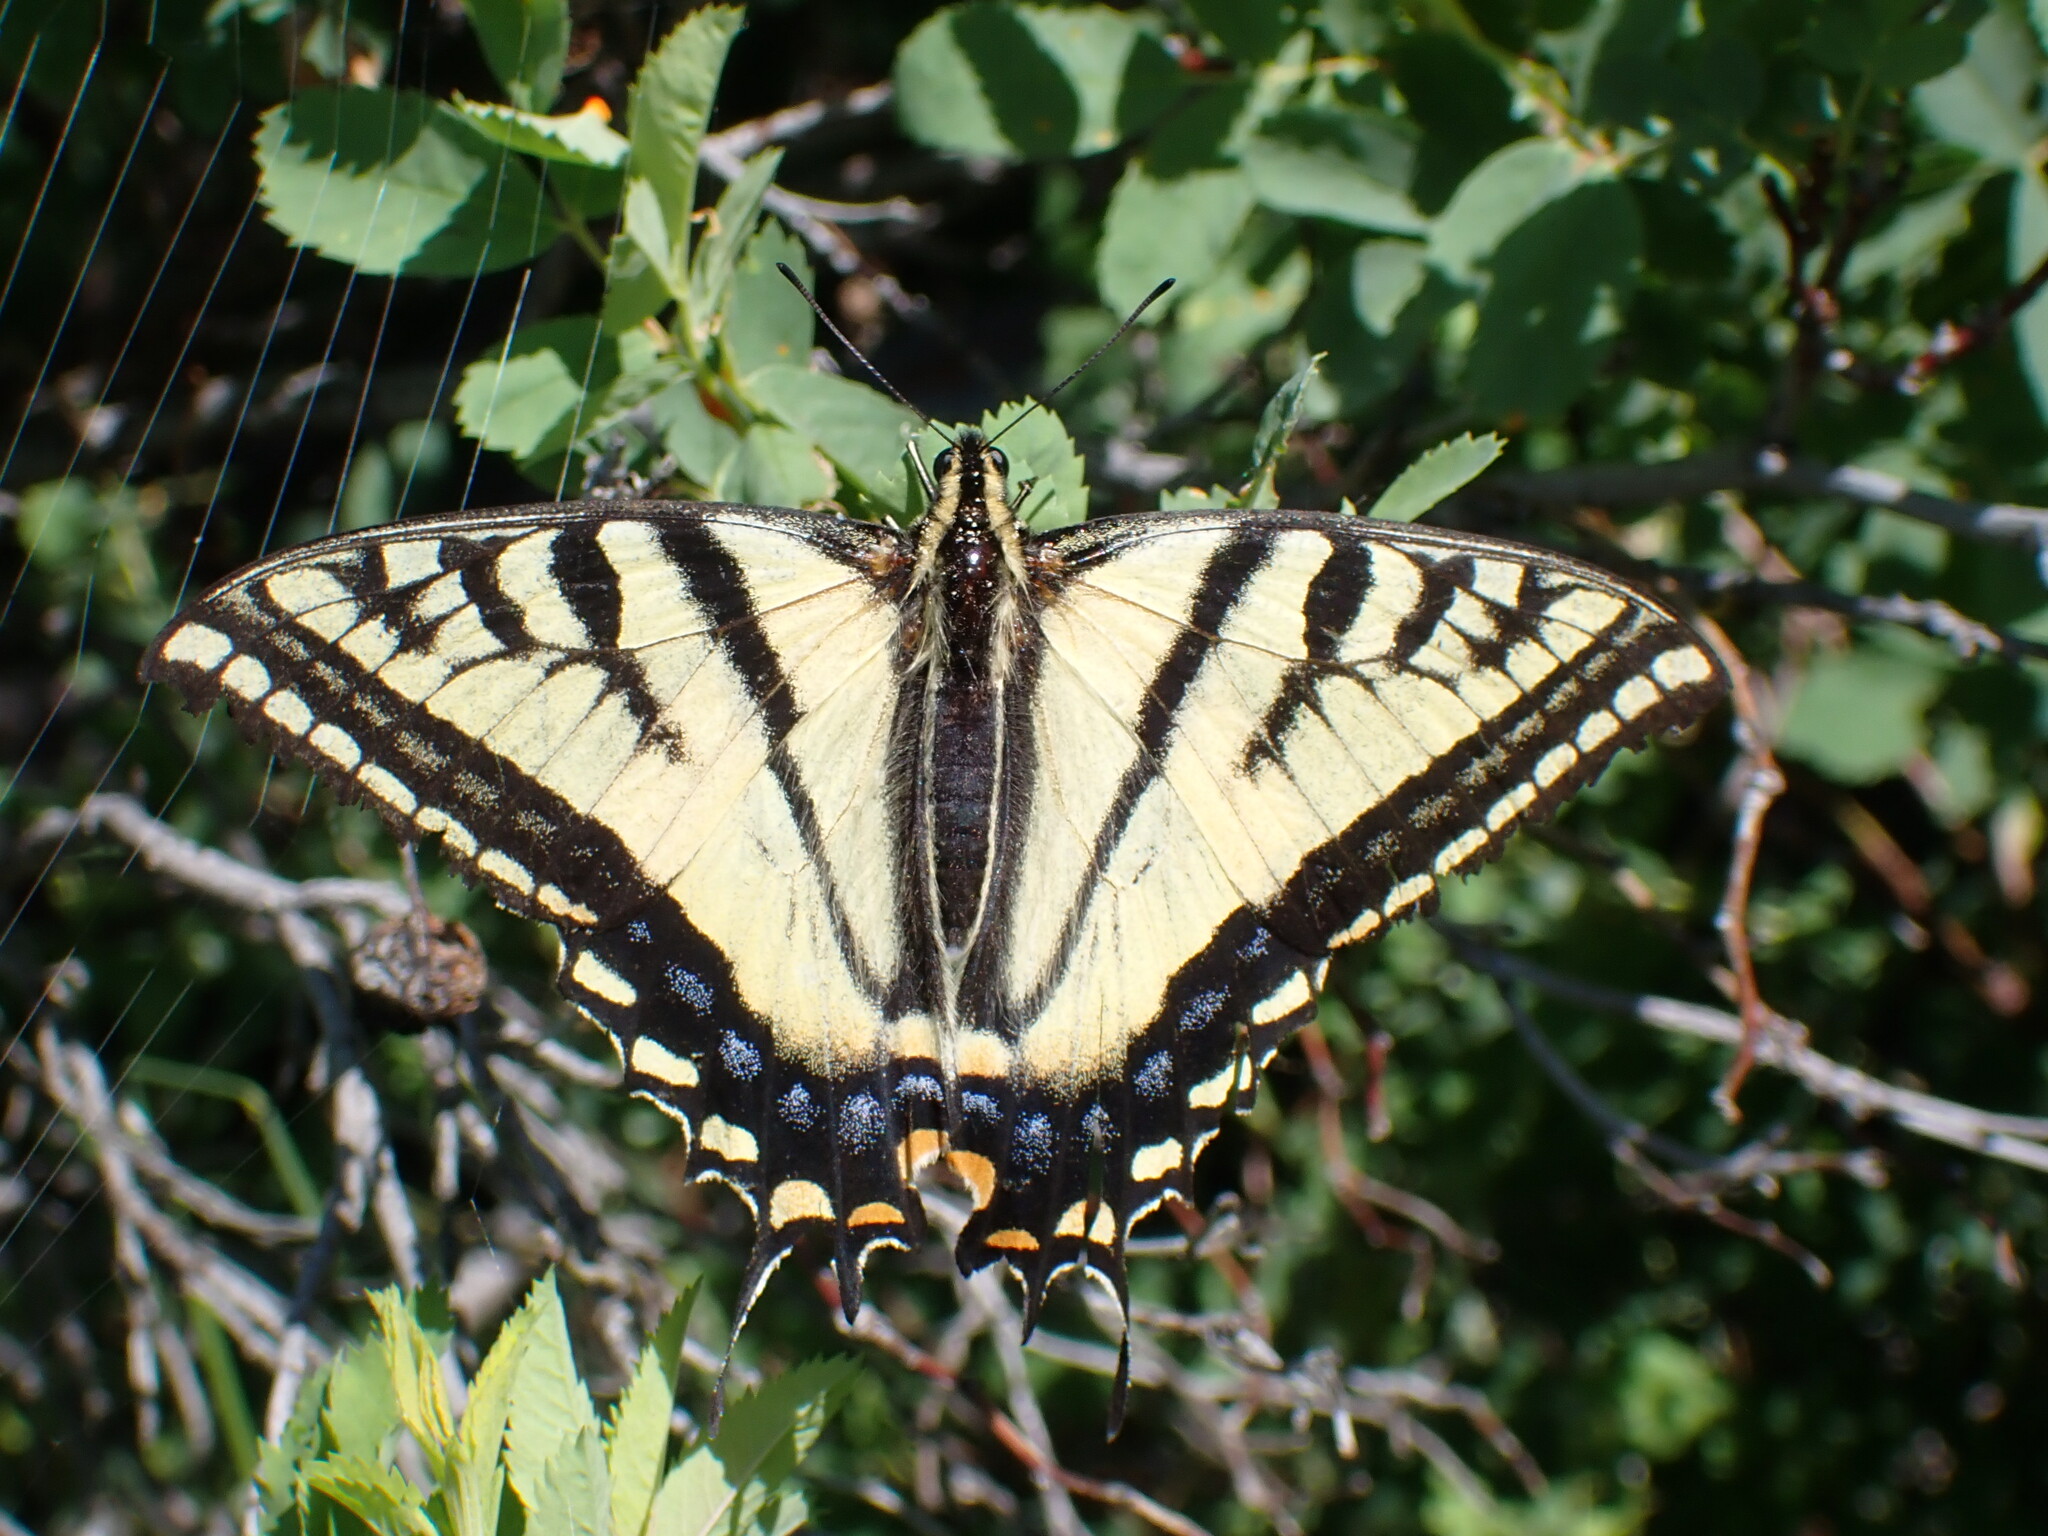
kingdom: Animalia
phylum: Arthropoda
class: Insecta
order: Lepidoptera
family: Papilionidae
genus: Papilio
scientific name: Papilio multicaudata
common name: Two-tailed tiger swallowtail
